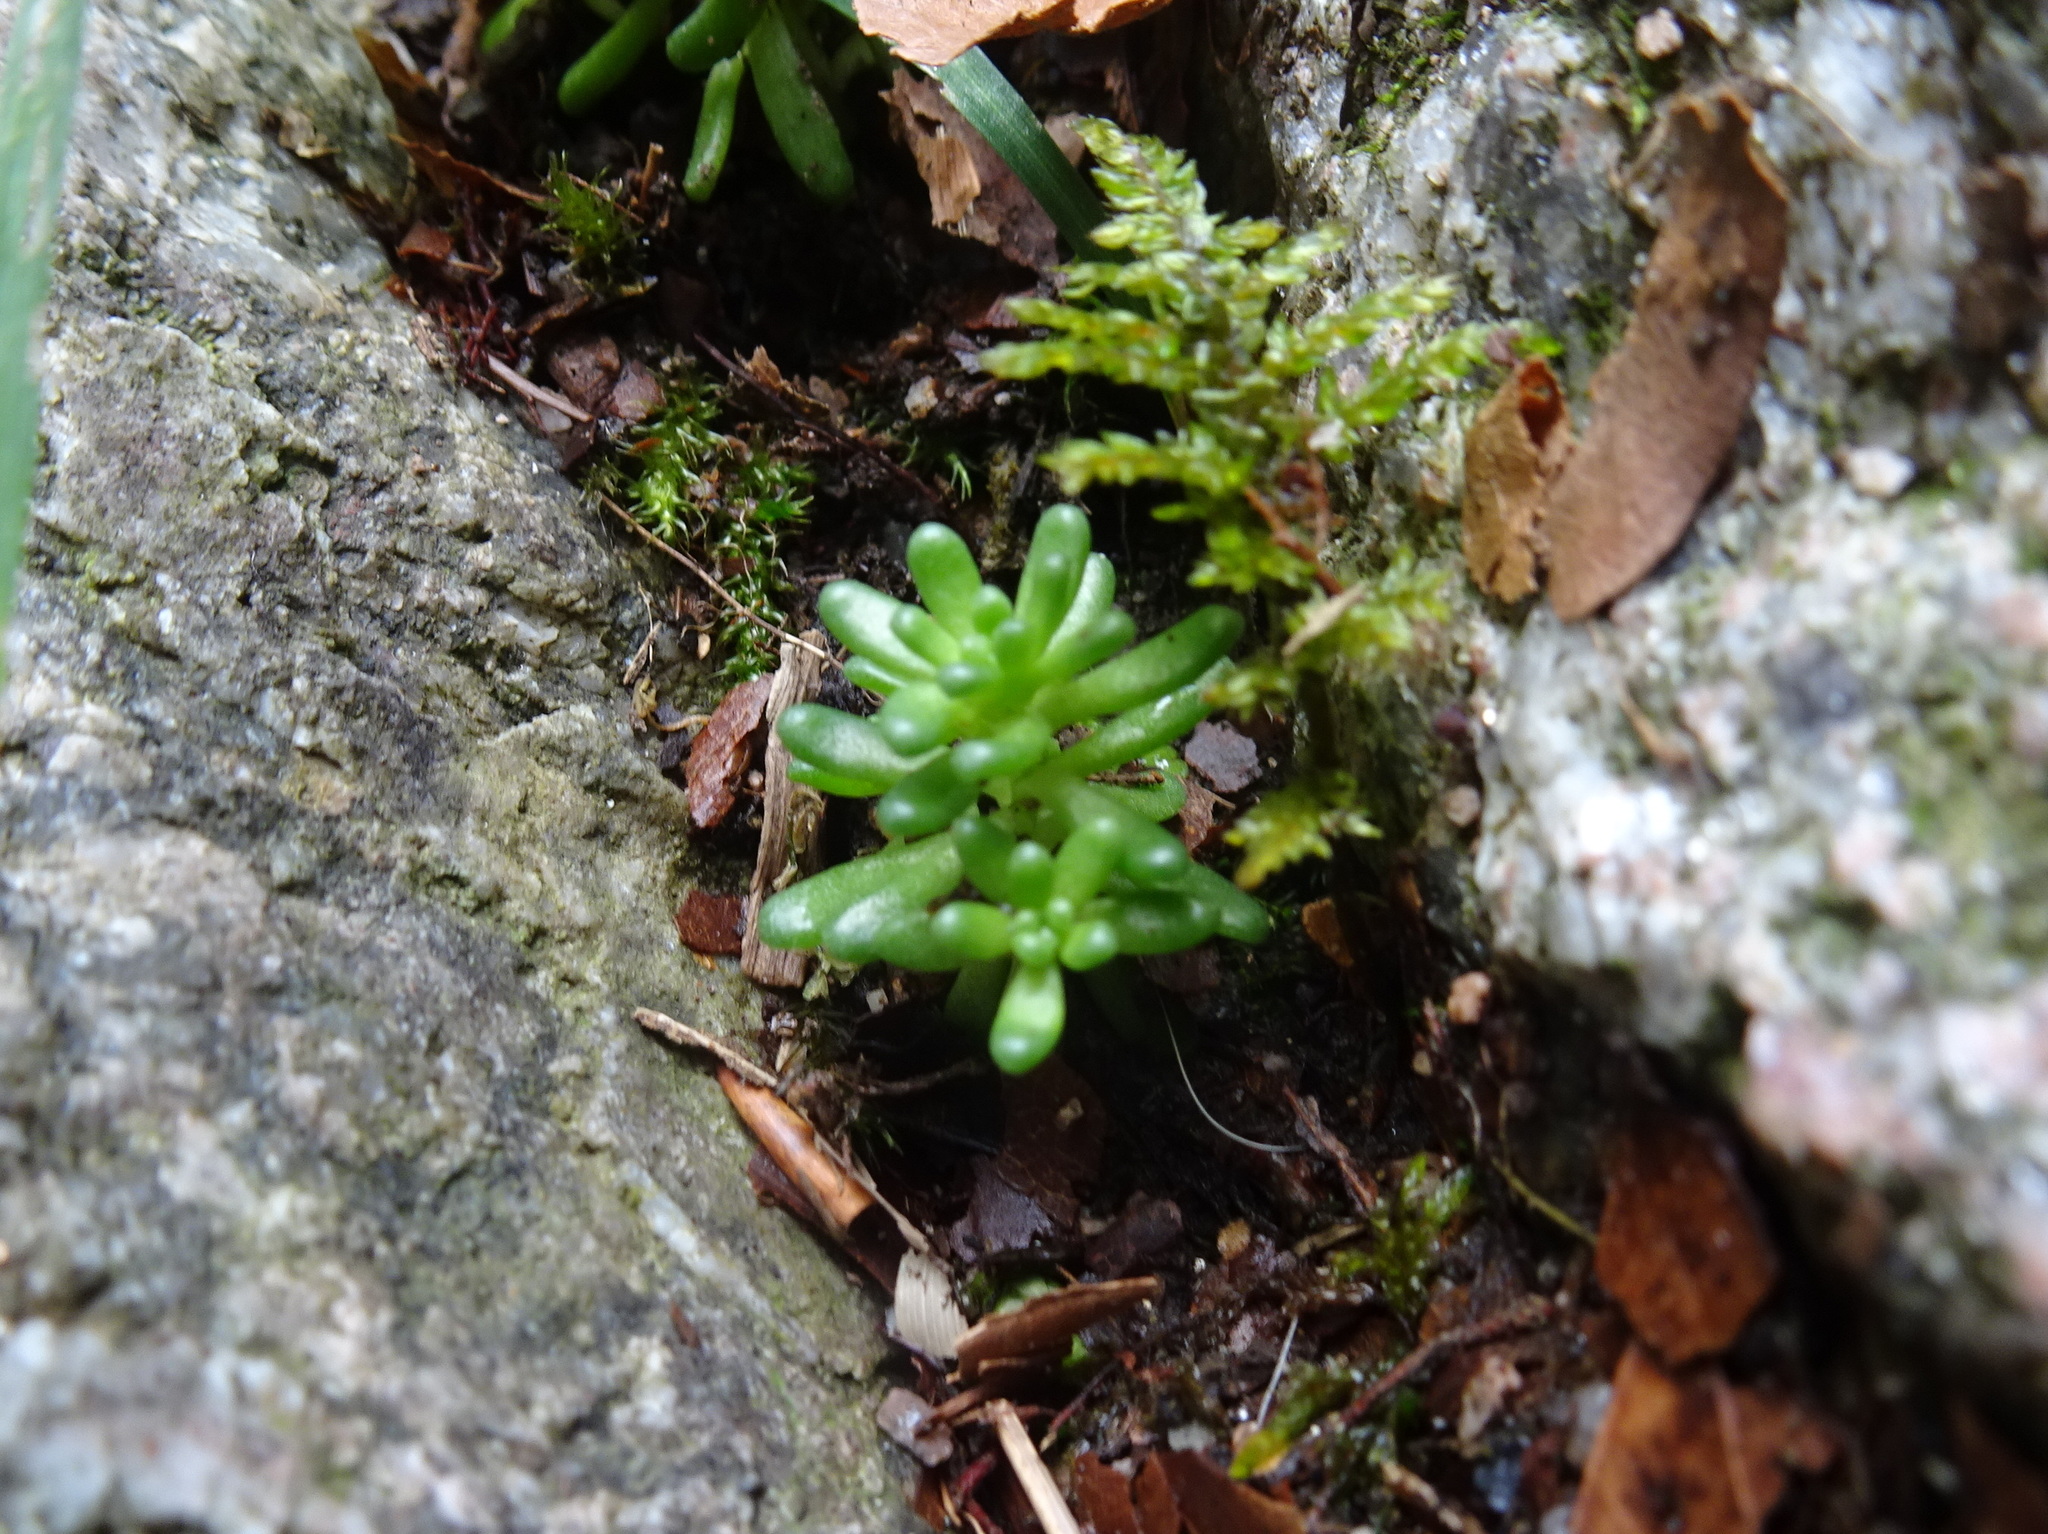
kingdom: Plantae
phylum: Tracheophyta
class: Magnoliopsida
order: Saxifragales
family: Crassulaceae
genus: Sedum
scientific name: Sedum album
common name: White stonecrop
